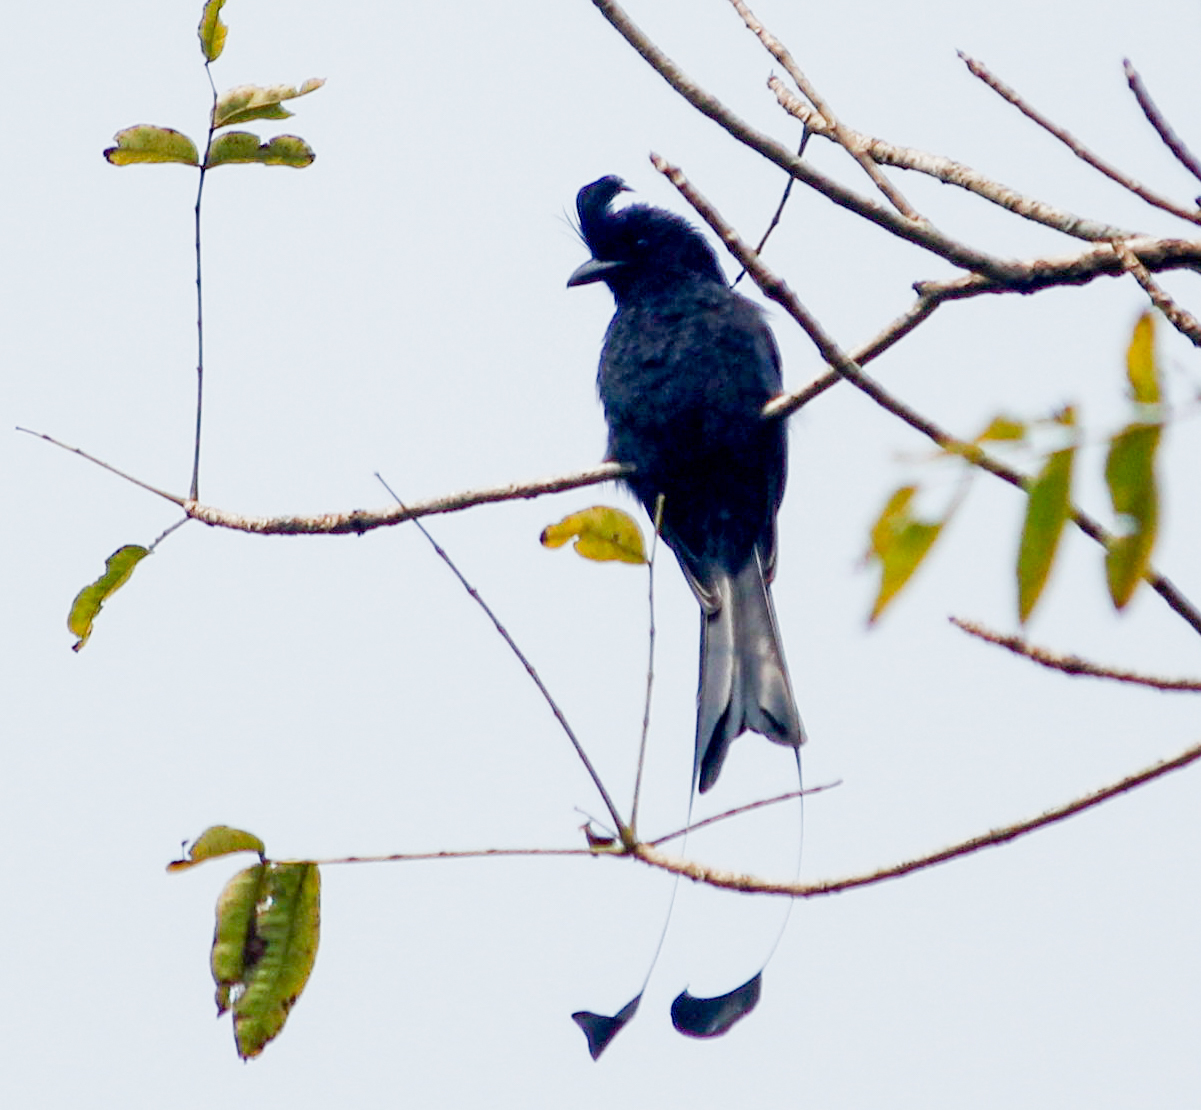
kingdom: Animalia
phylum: Chordata
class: Aves
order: Passeriformes
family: Dicruridae
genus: Dicrurus
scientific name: Dicrurus paradiseus
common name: Greater racket-tailed drongo
